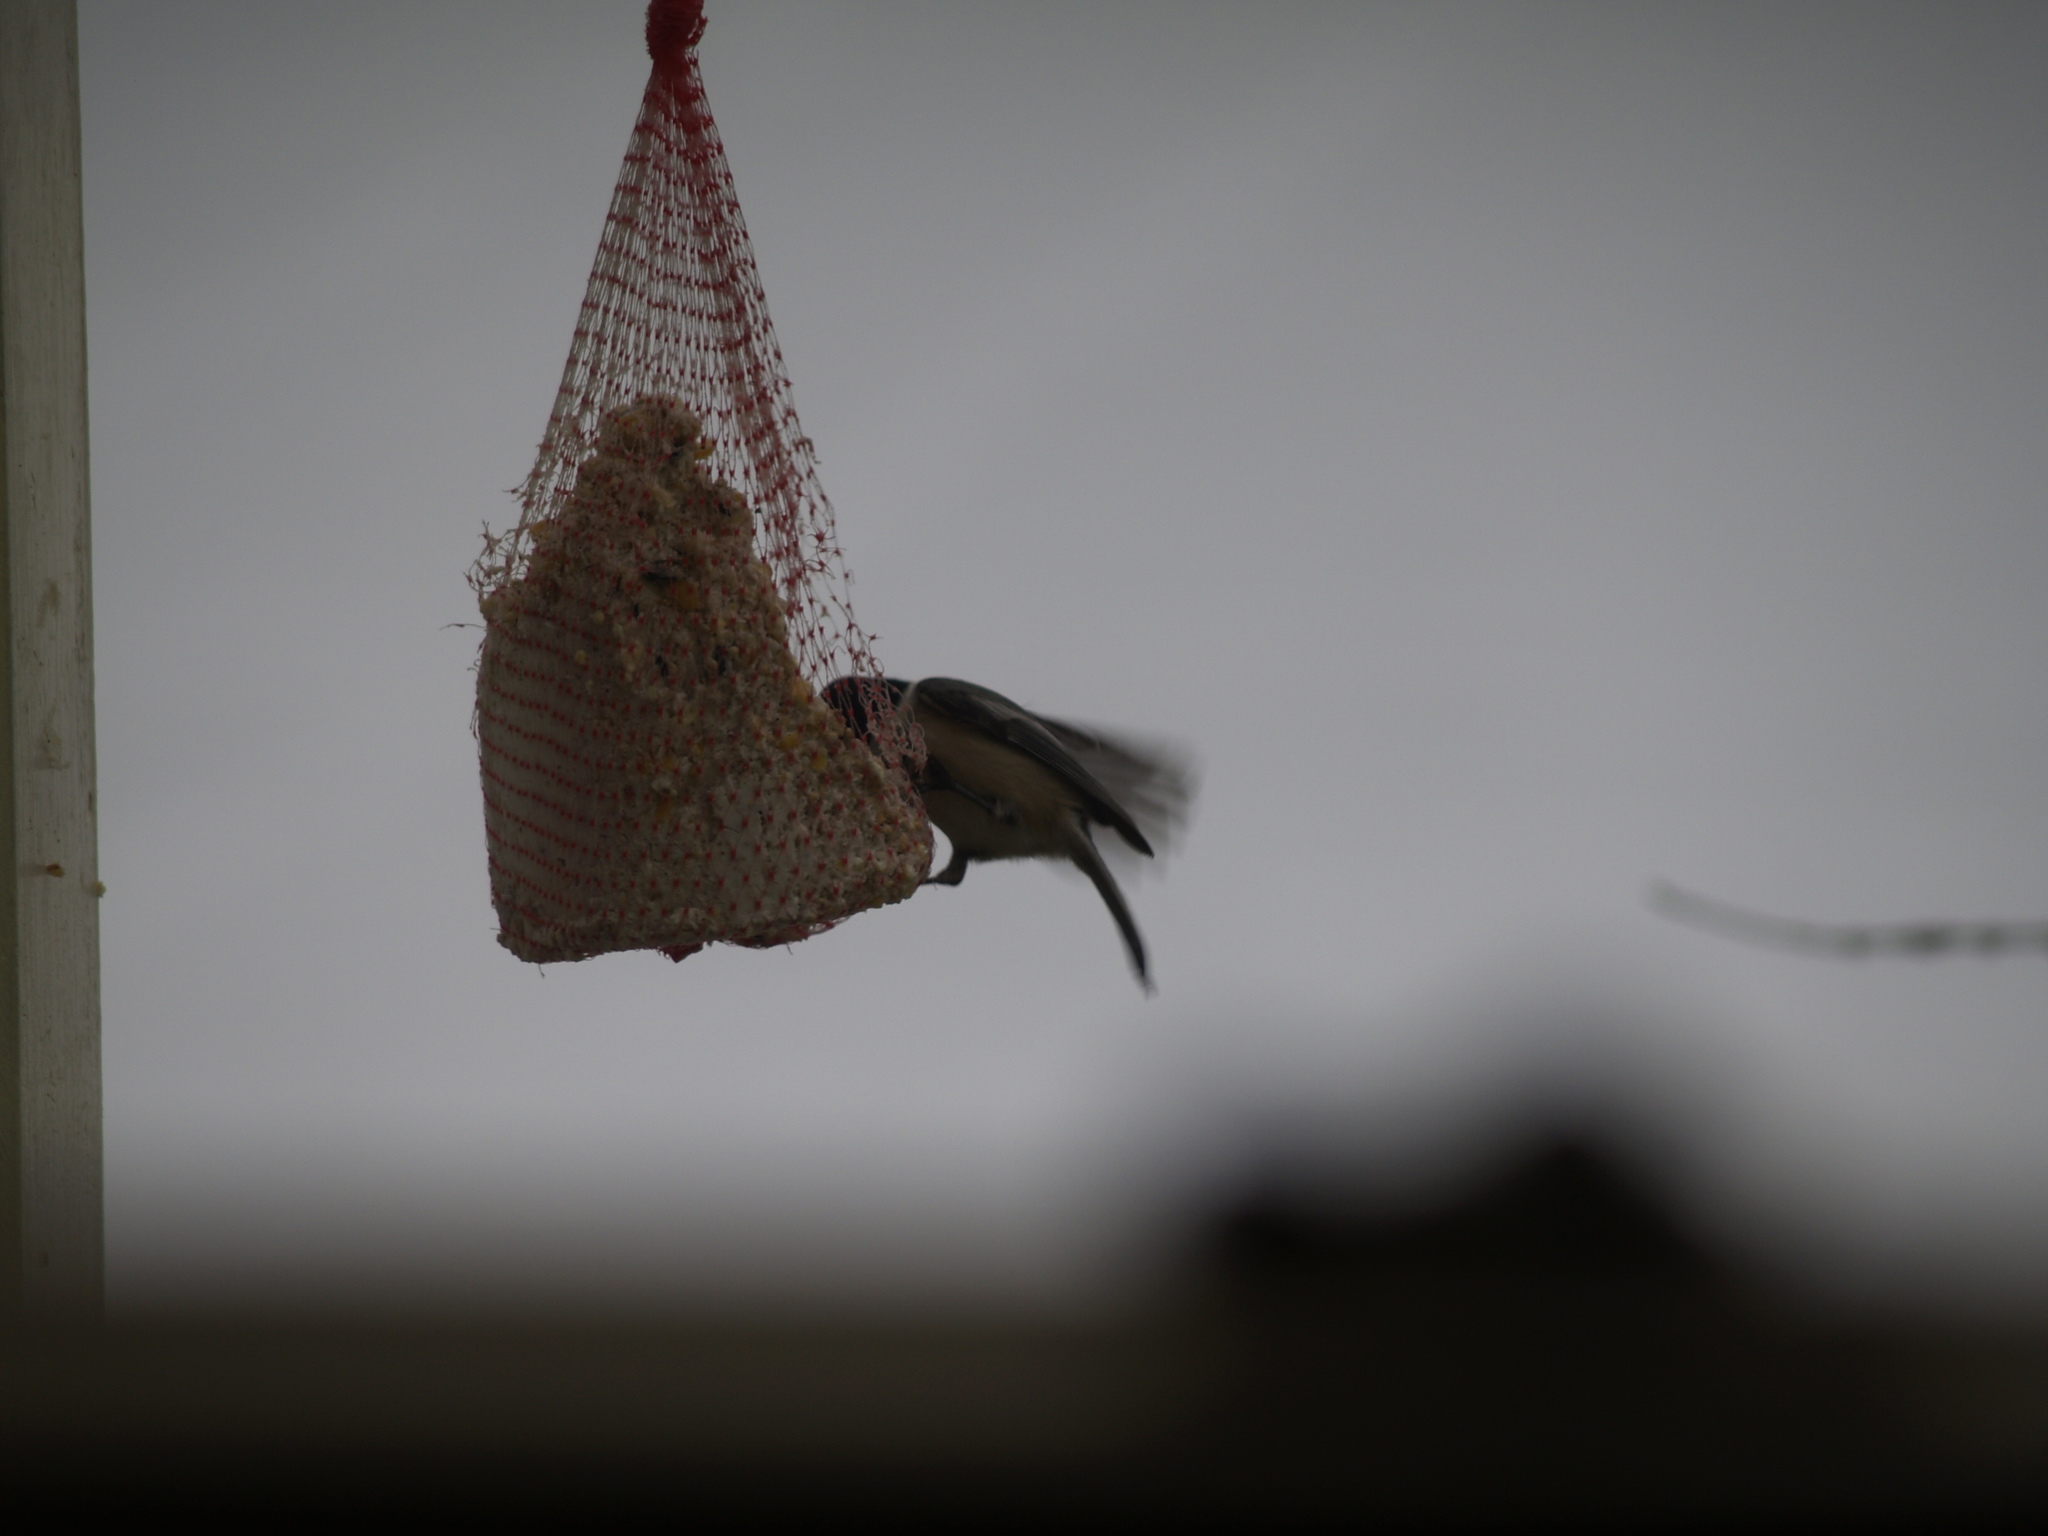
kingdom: Animalia
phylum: Chordata
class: Aves
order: Passeriformes
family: Paridae
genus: Poecile
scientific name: Poecile atricapillus
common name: Black-capped chickadee
